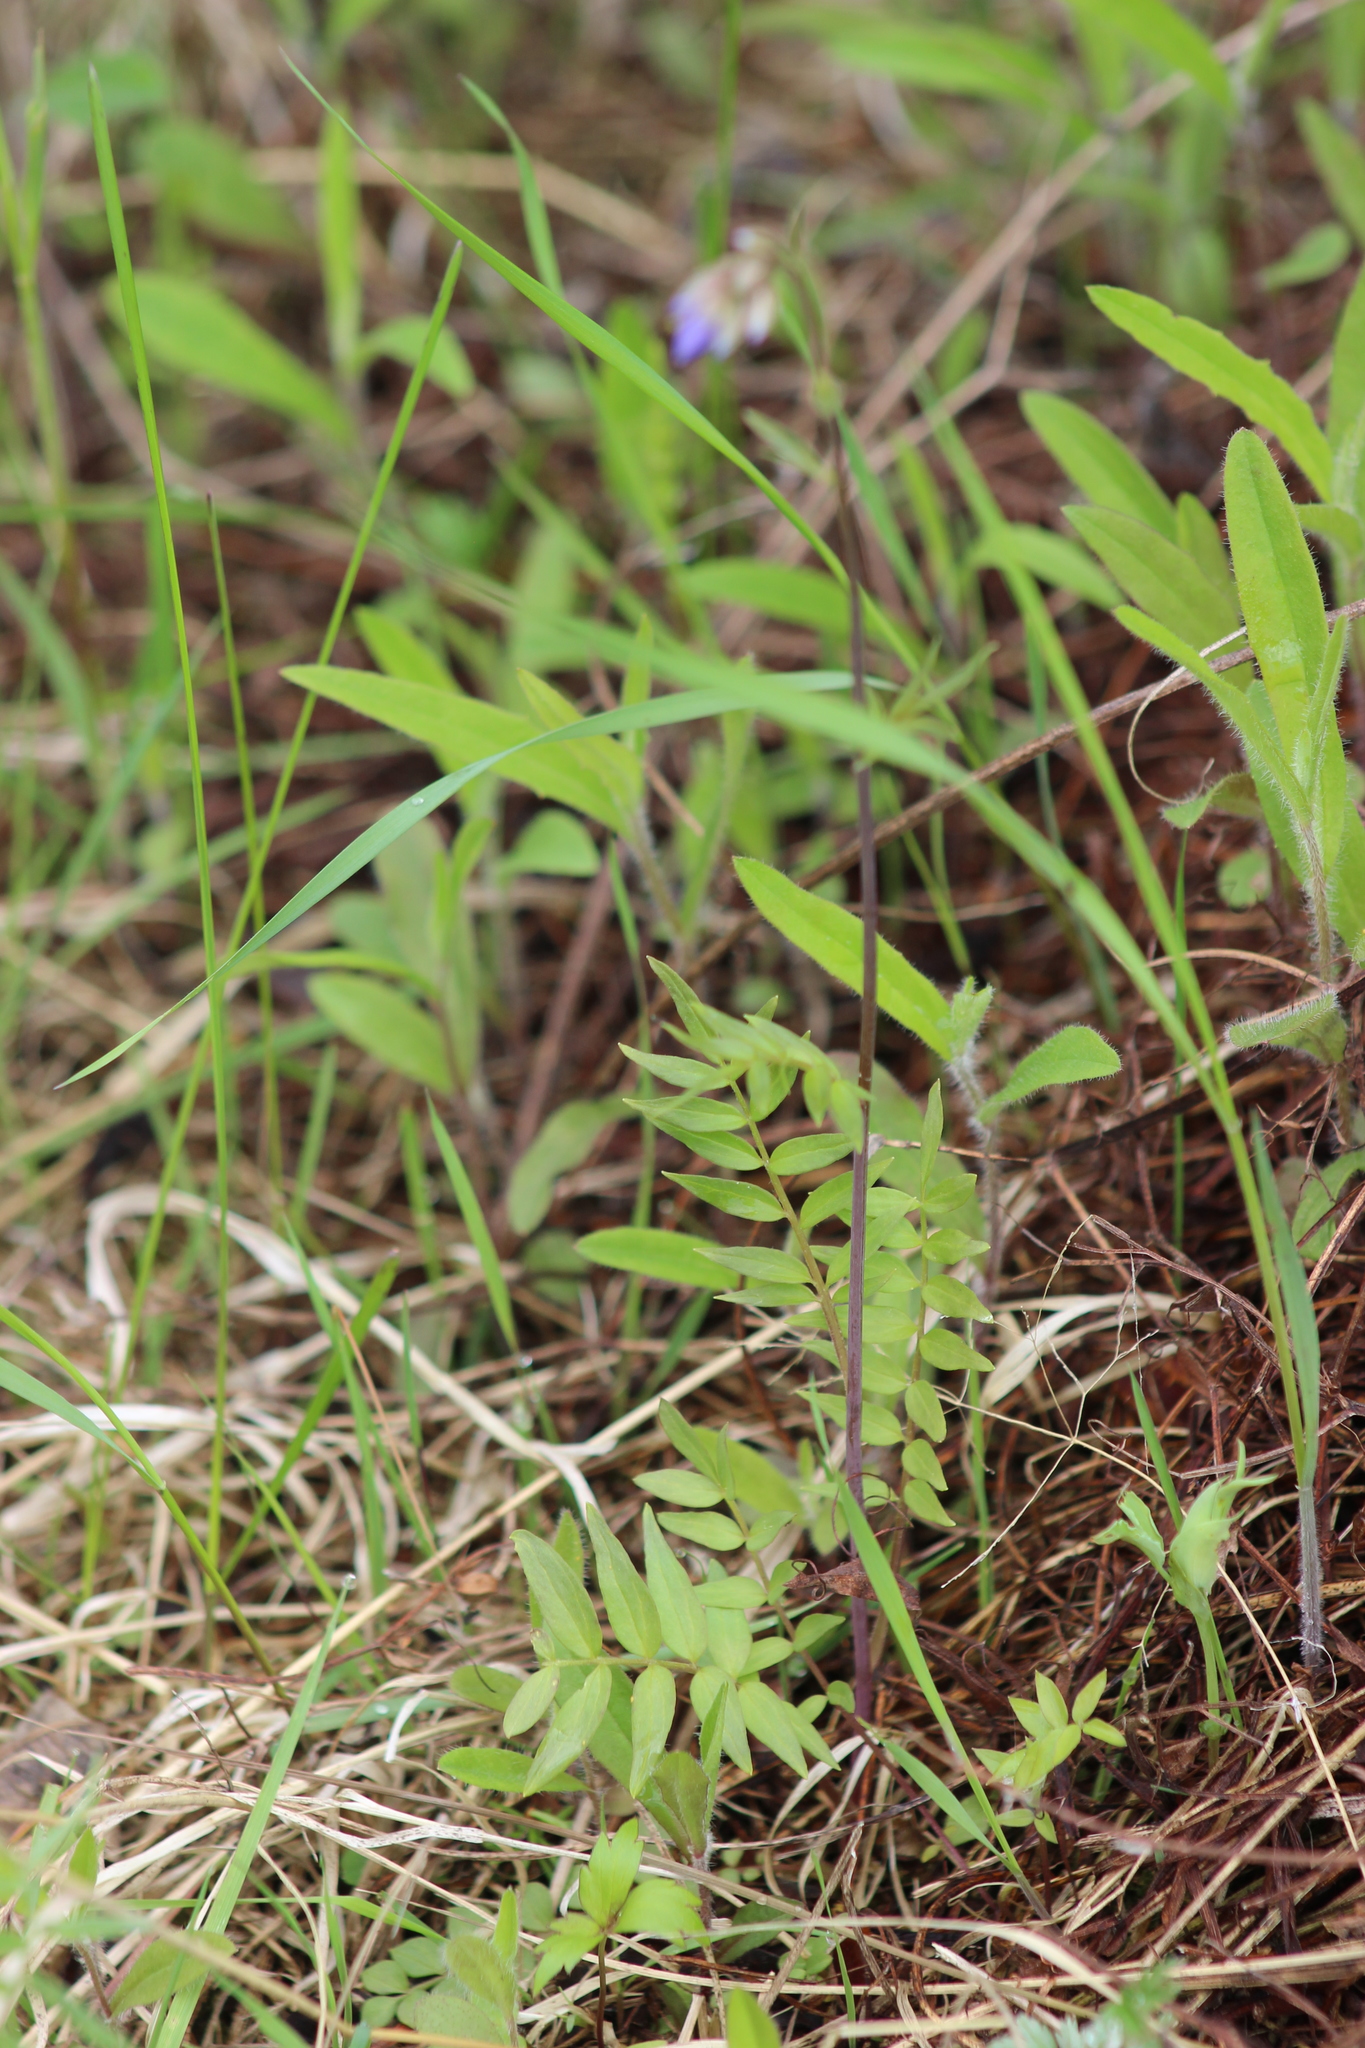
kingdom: Plantae
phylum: Tracheophyta
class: Magnoliopsida
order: Ericales
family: Polemoniaceae
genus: Polemonium
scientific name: Polemonium caeruleum
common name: Jacob's-ladder
